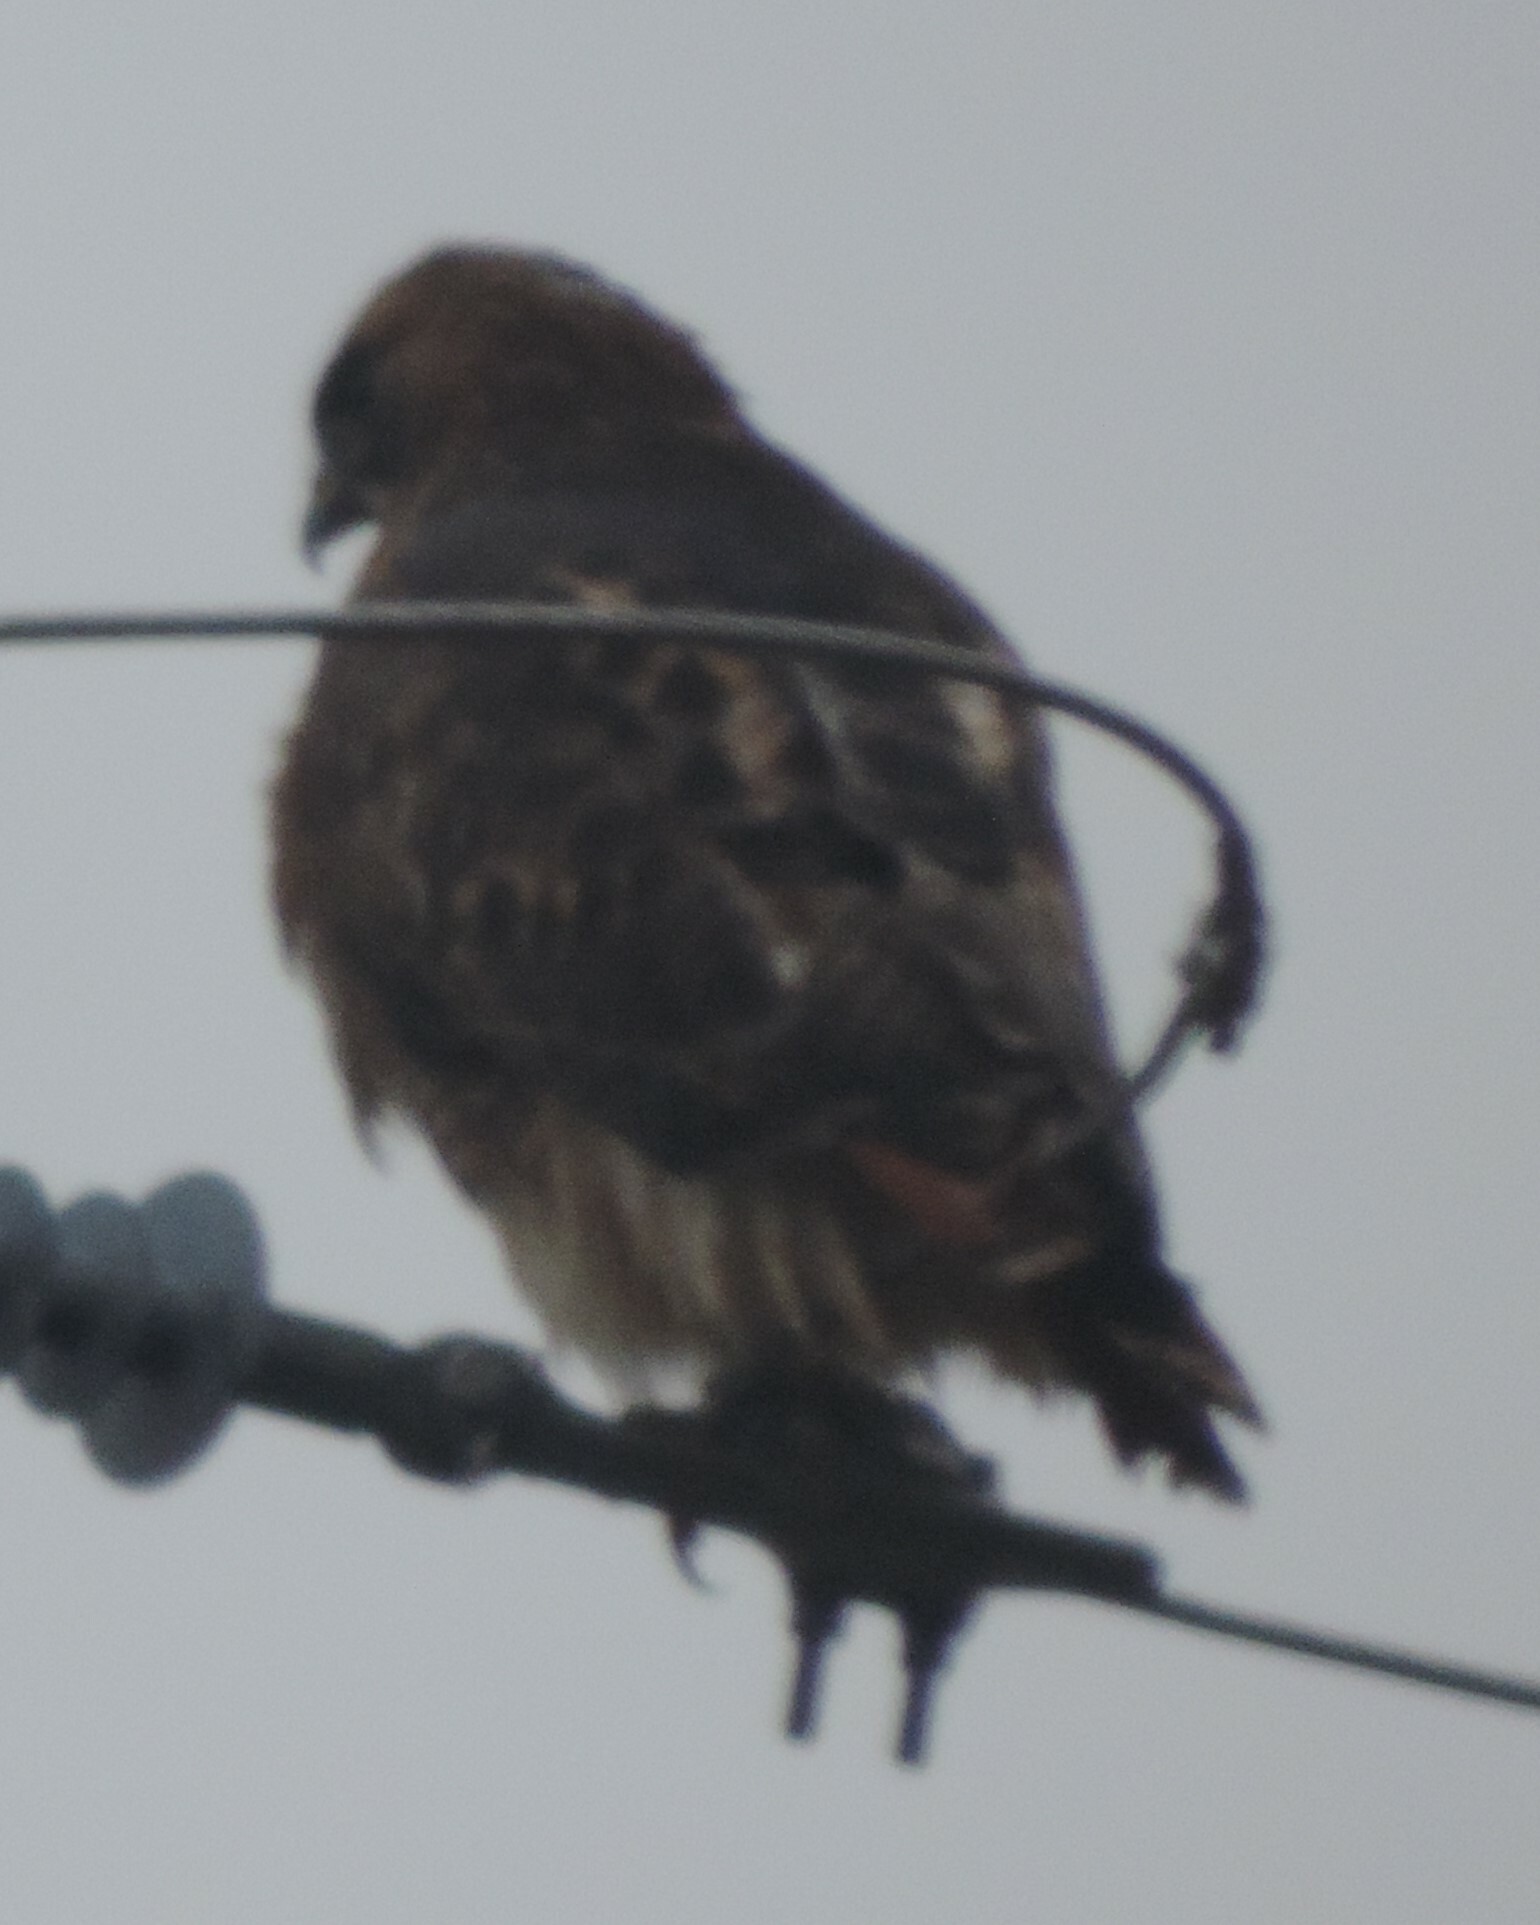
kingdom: Animalia
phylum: Chordata
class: Aves
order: Accipitriformes
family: Accipitridae
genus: Buteo
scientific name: Buteo jamaicensis
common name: Red-tailed hawk
